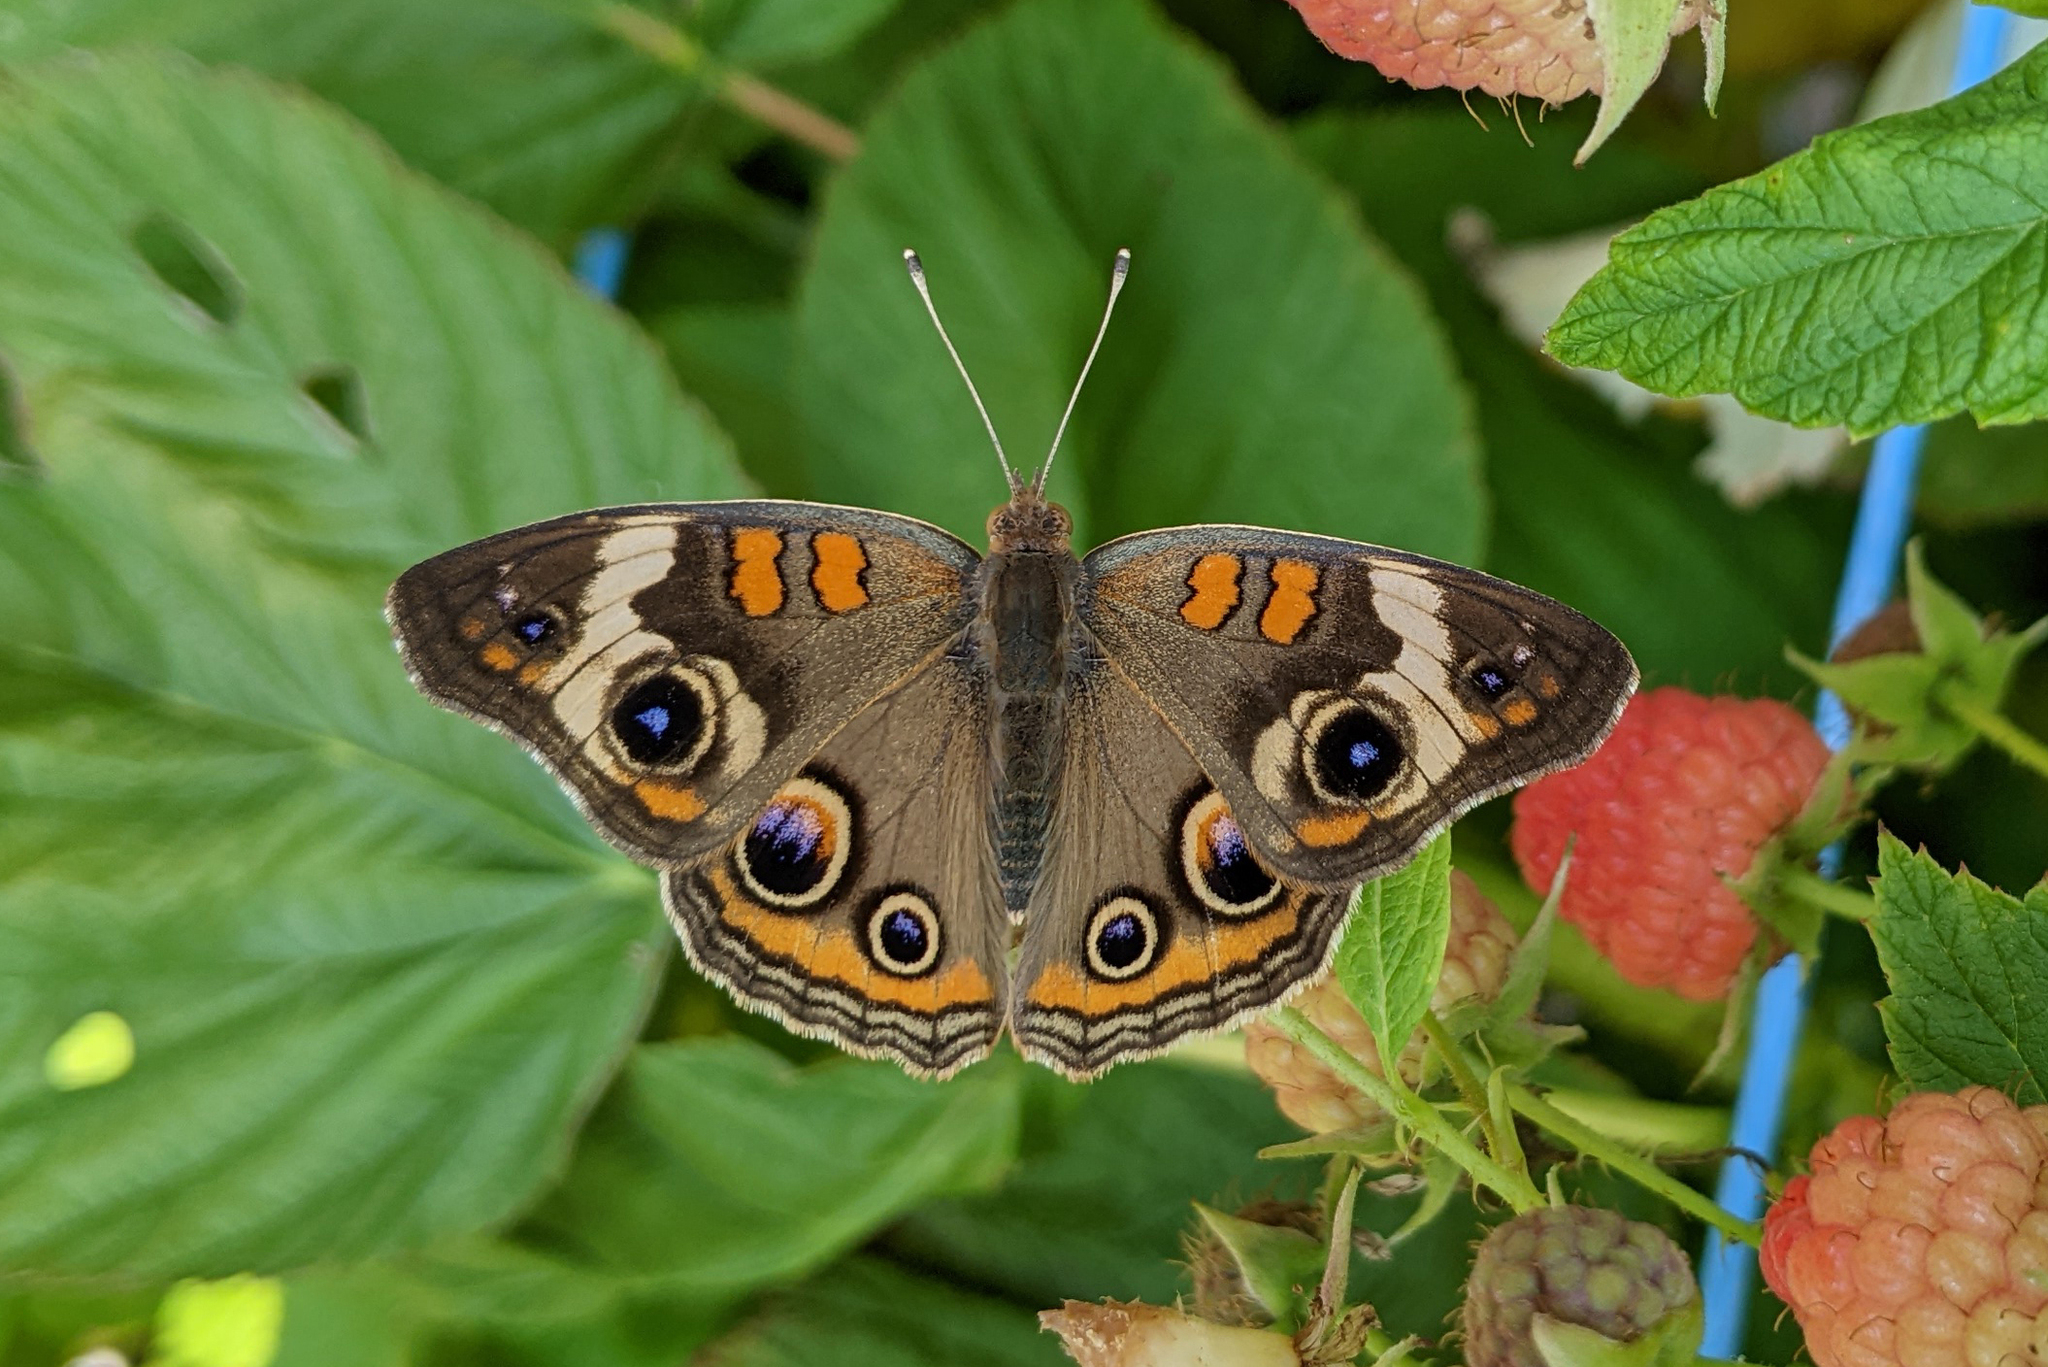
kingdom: Animalia
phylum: Arthropoda
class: Insecta
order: Lepidoptera
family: Nymphalidae
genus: Junonia
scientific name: Junonia coenia
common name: Common buckeye
